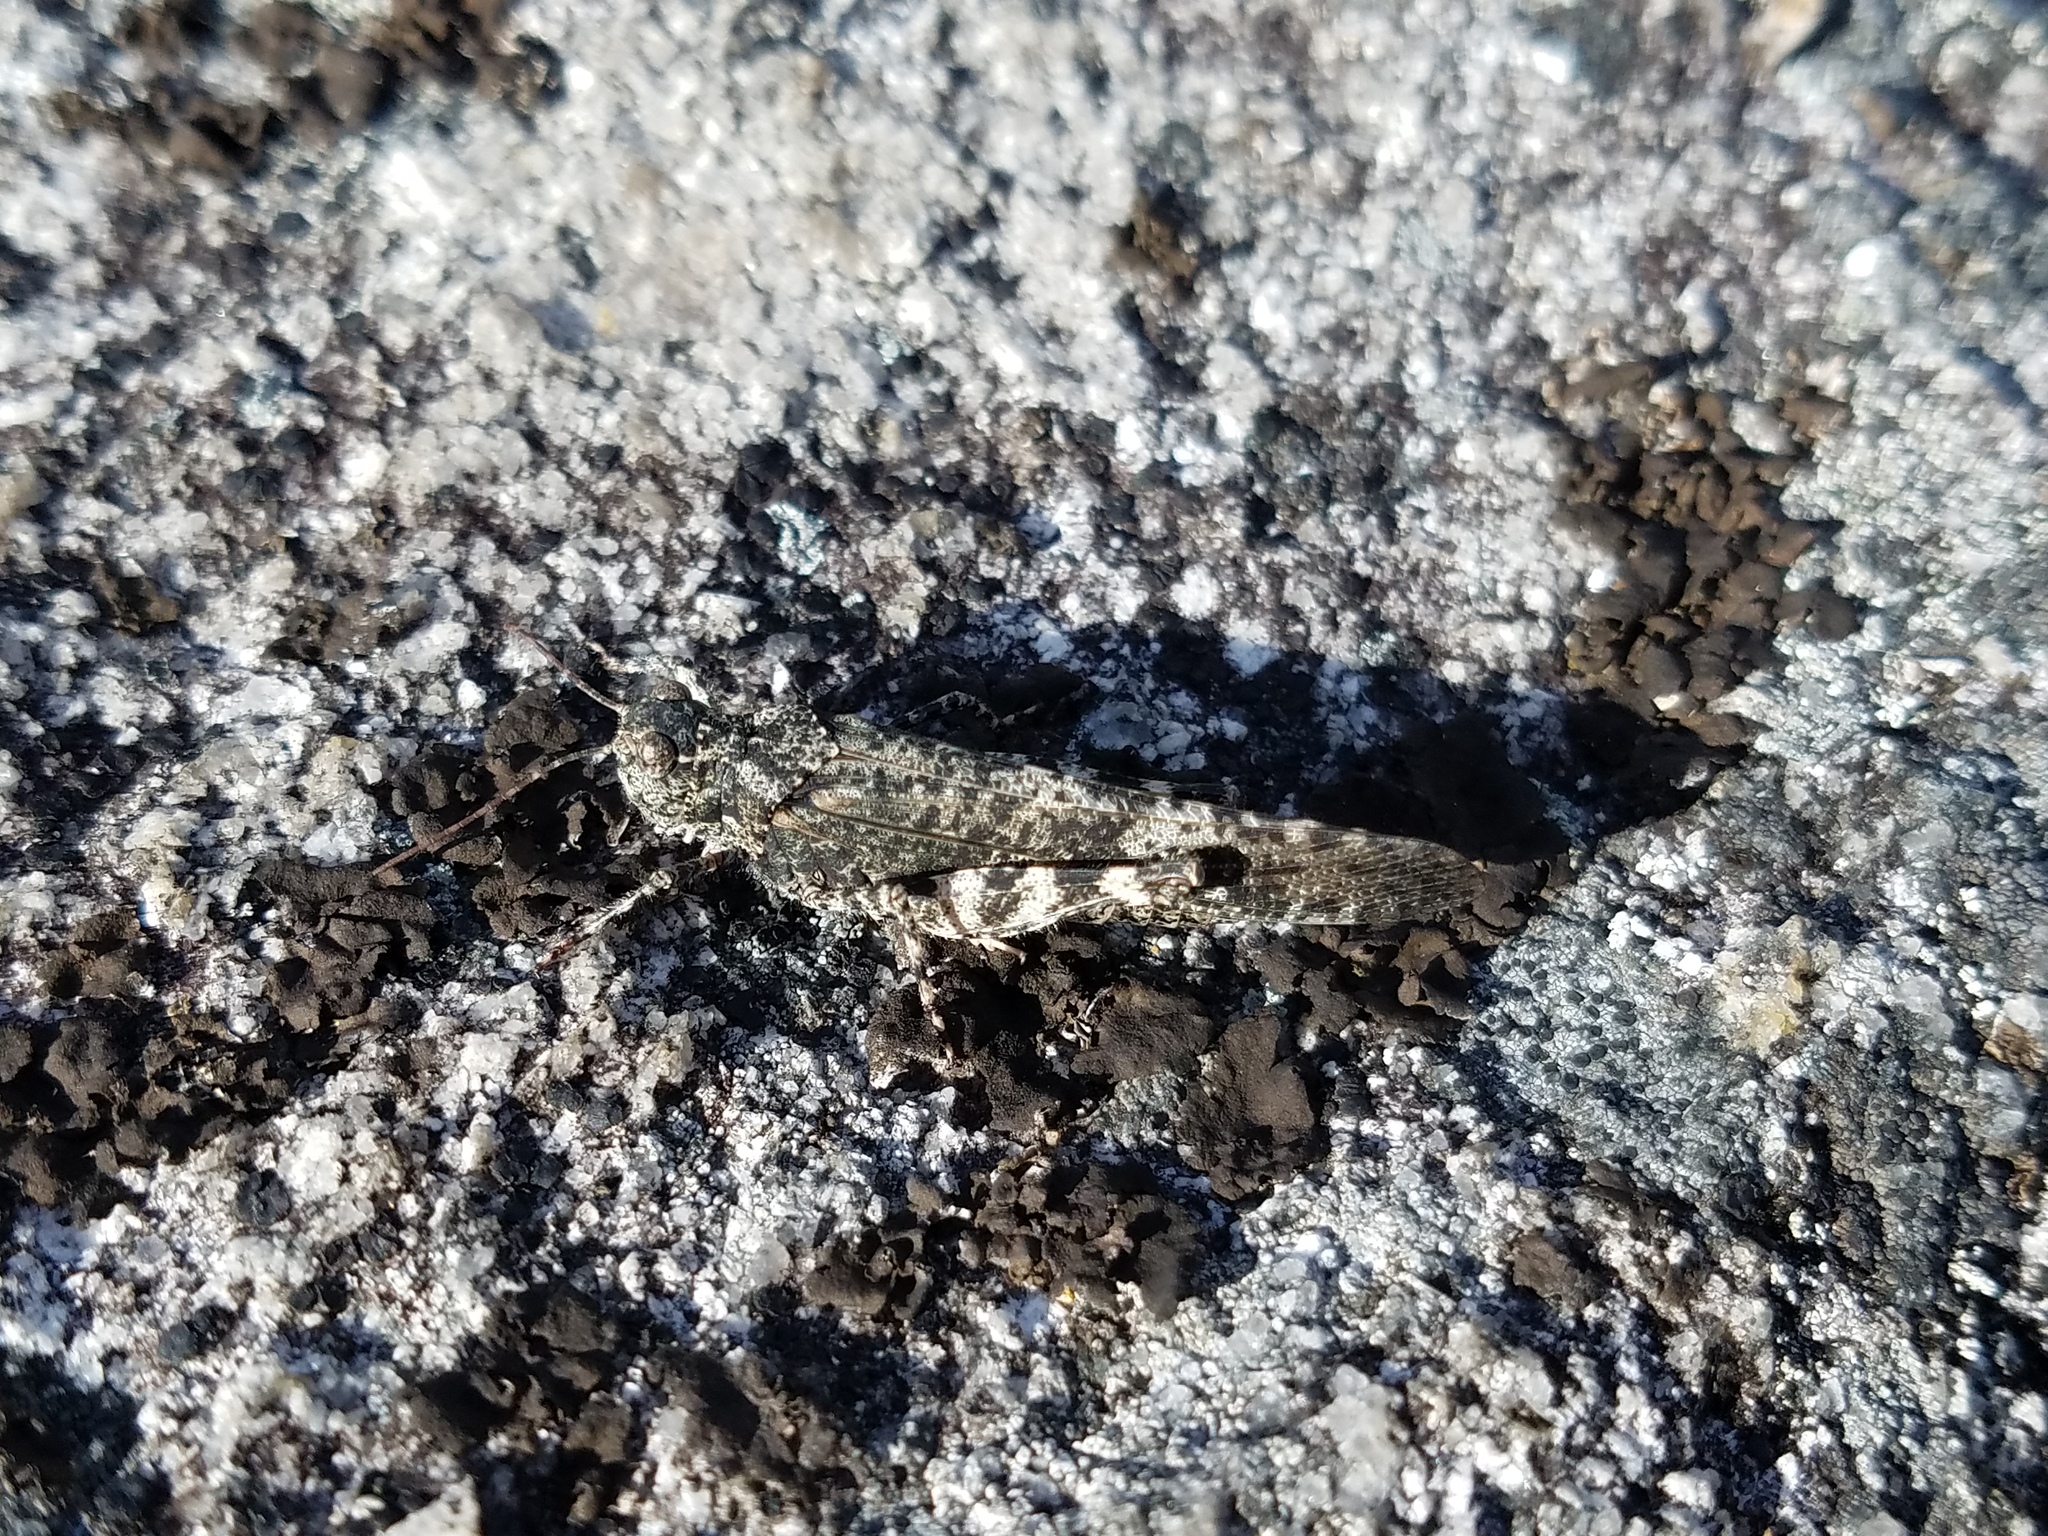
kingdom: Animalia
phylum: Arthropoda
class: Insecta
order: Orthoptera
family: Acrididae
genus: Trimerotropis
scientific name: Trimerotropis verruculata
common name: Crackling forest grasshopper
